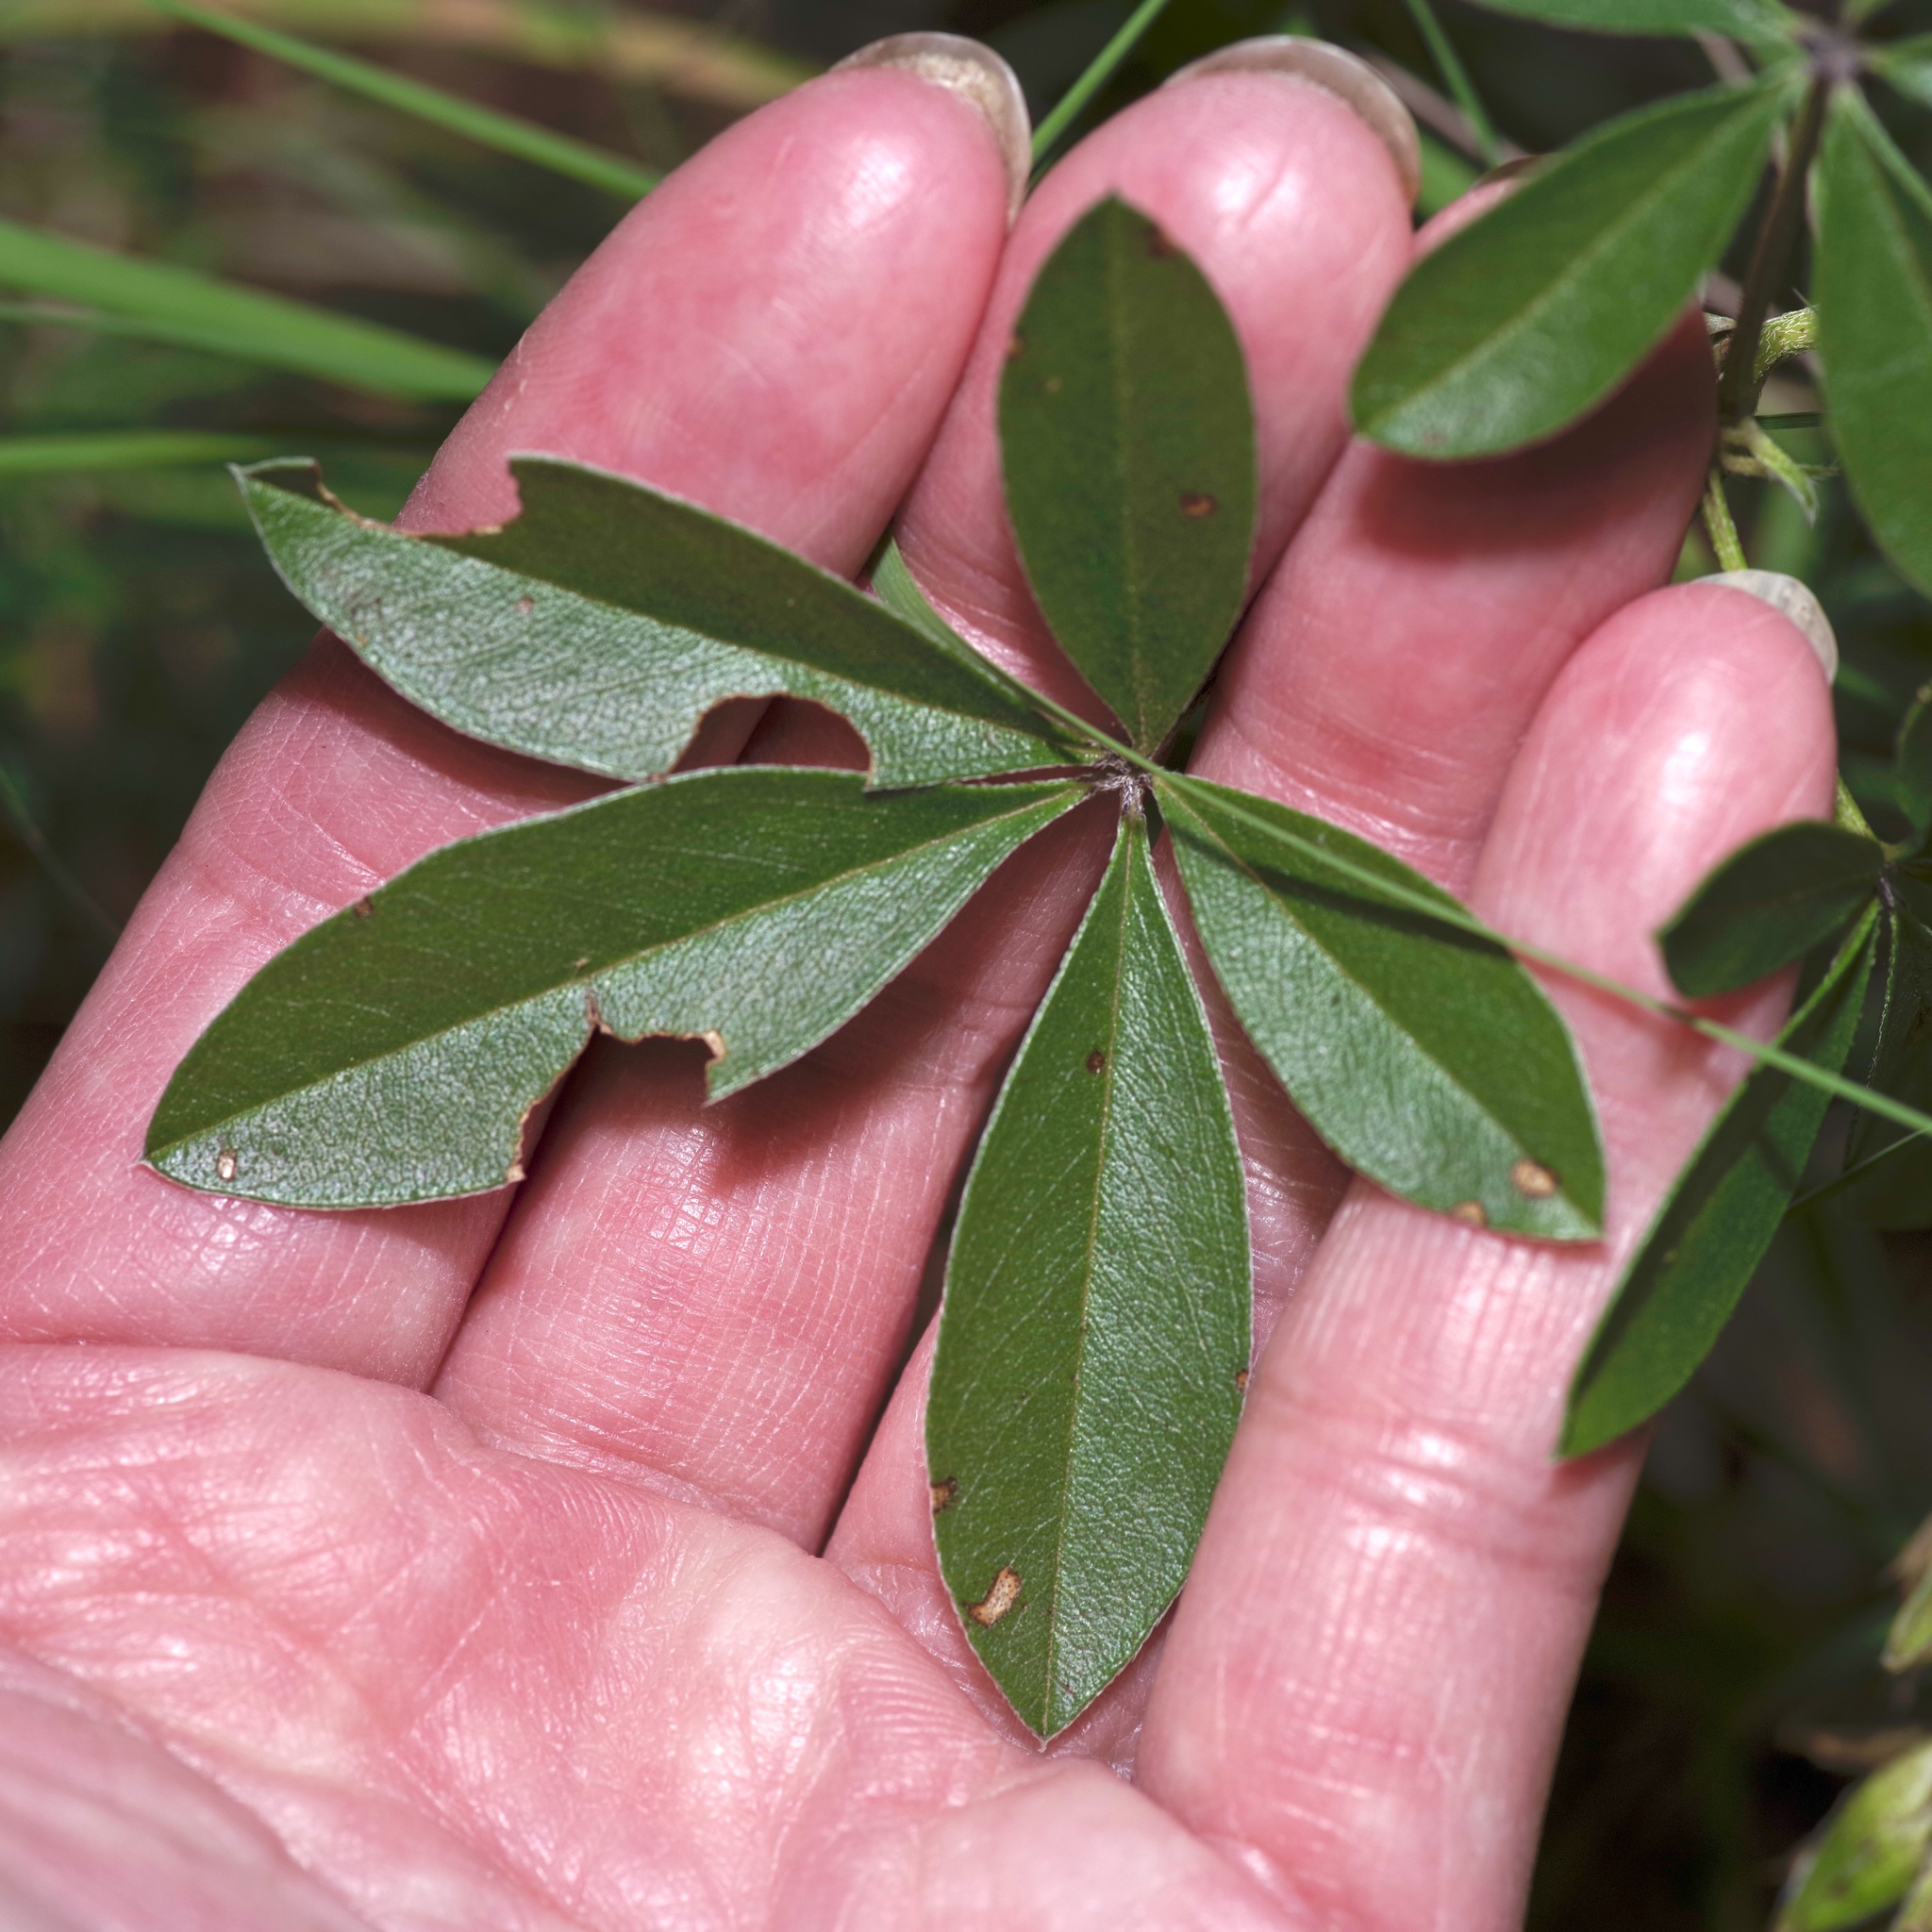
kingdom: Plantae
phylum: Tracheophyta
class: Magnoliopsida
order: Fabales
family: Fabaceae
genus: Pediomelum
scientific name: Pediomelum latestipulatum
